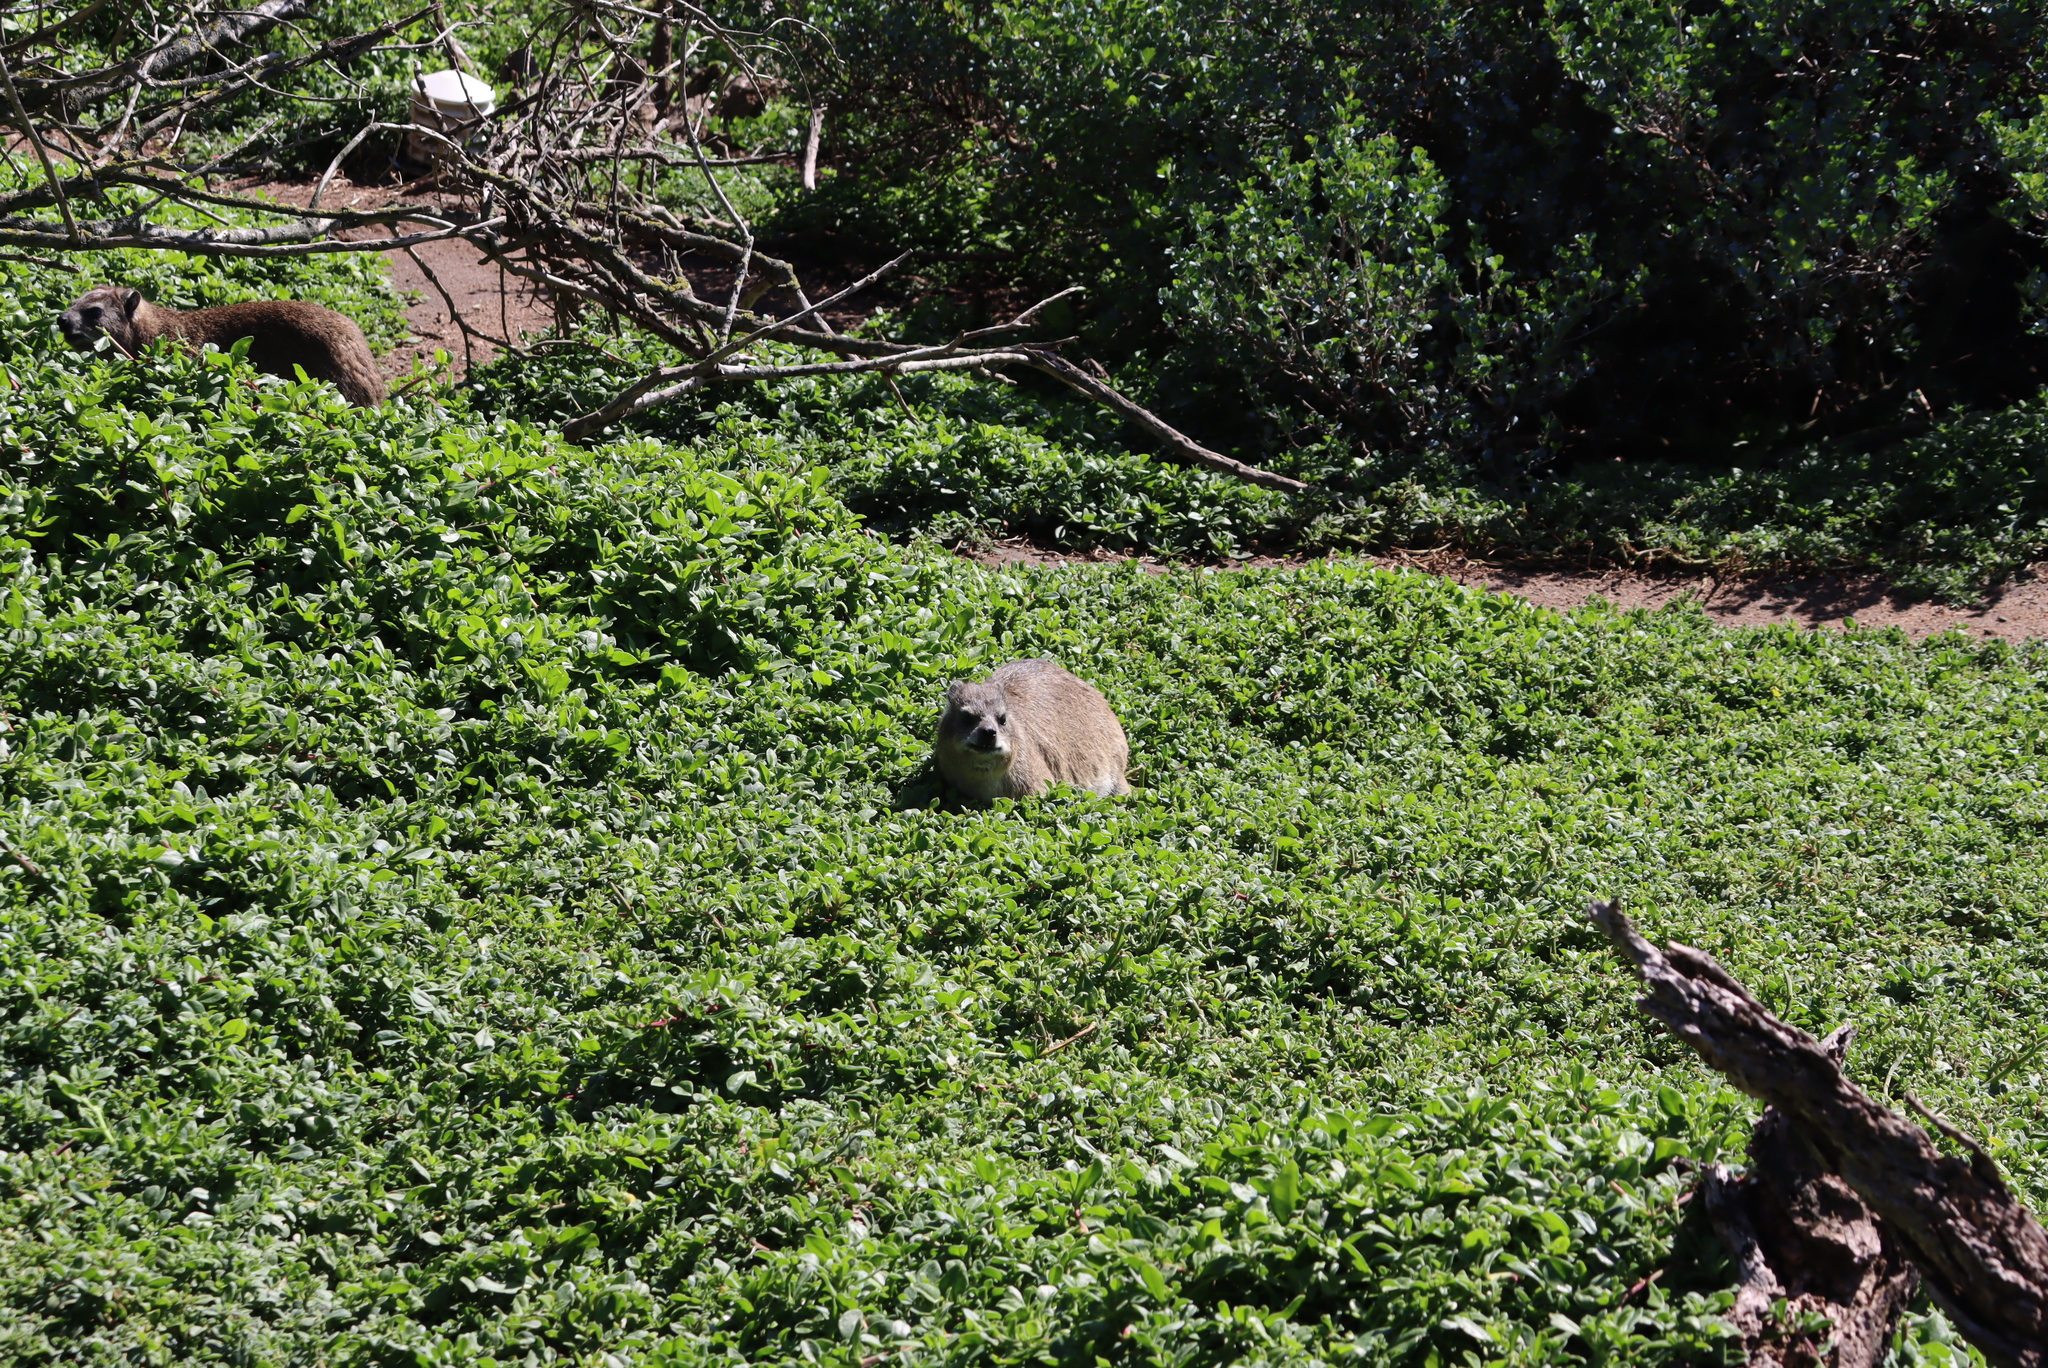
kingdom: Animalia
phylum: Chordata
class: Mammalia
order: Hyracoidea
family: Procaviidae
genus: Procavia
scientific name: Procavia capensis
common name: Rock hyrax
